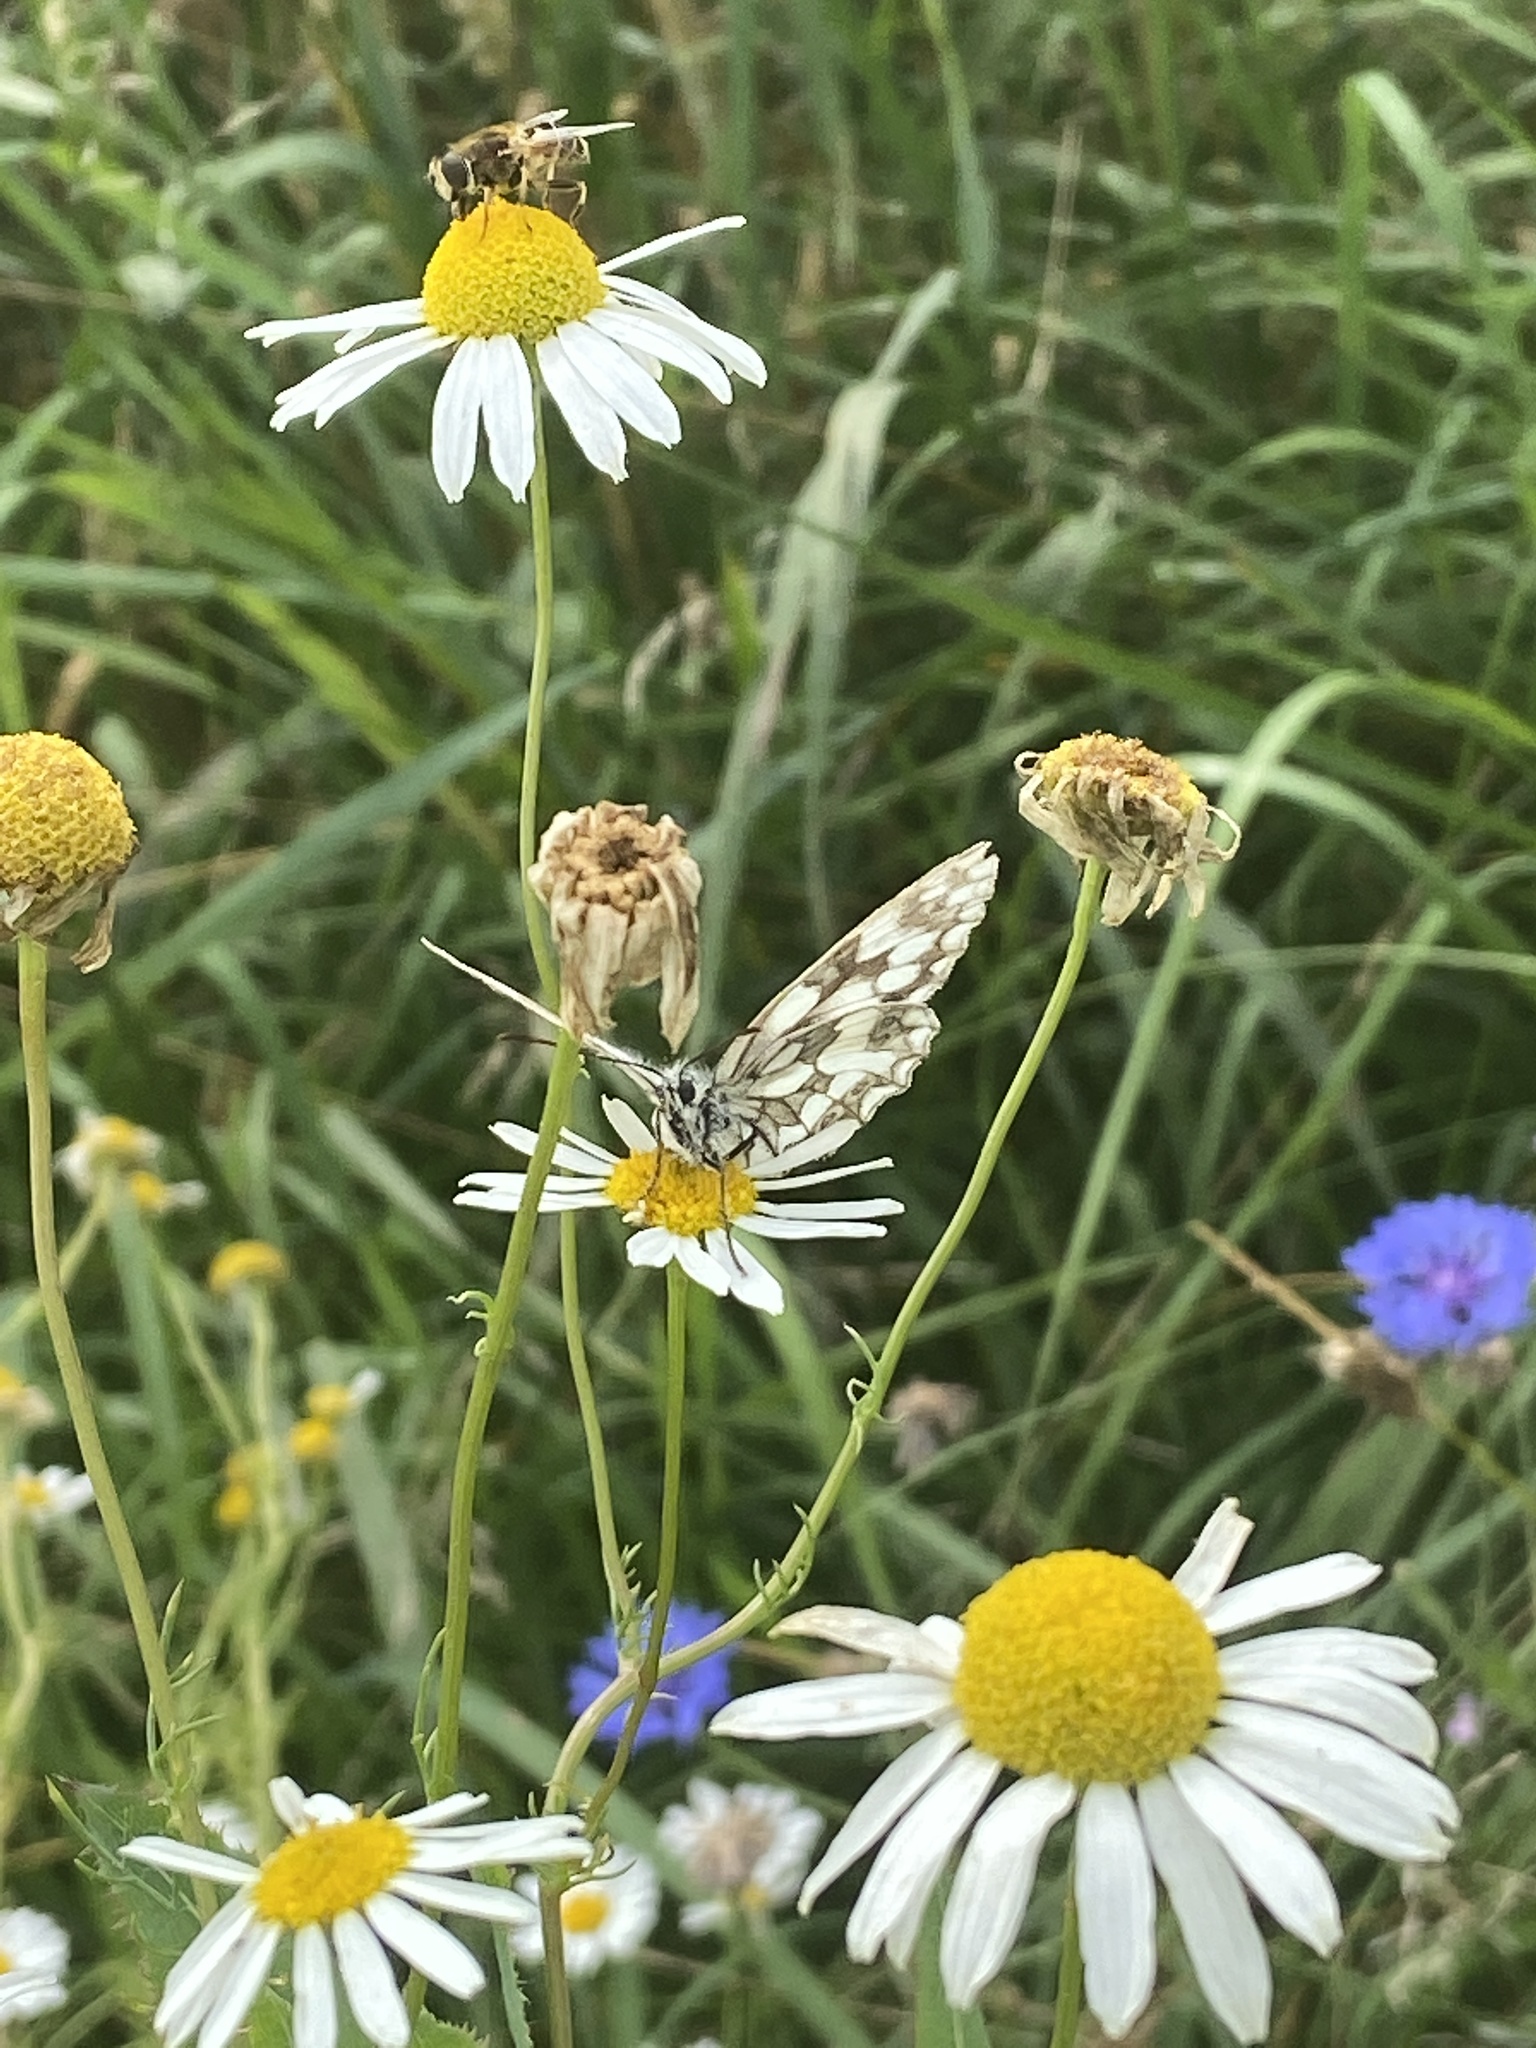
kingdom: Animalia
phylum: Arthropoda
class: Insecta
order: Lepidoptera
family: Nymphalidae
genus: Melanargia
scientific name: Melanargia galathea
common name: Marbled white
